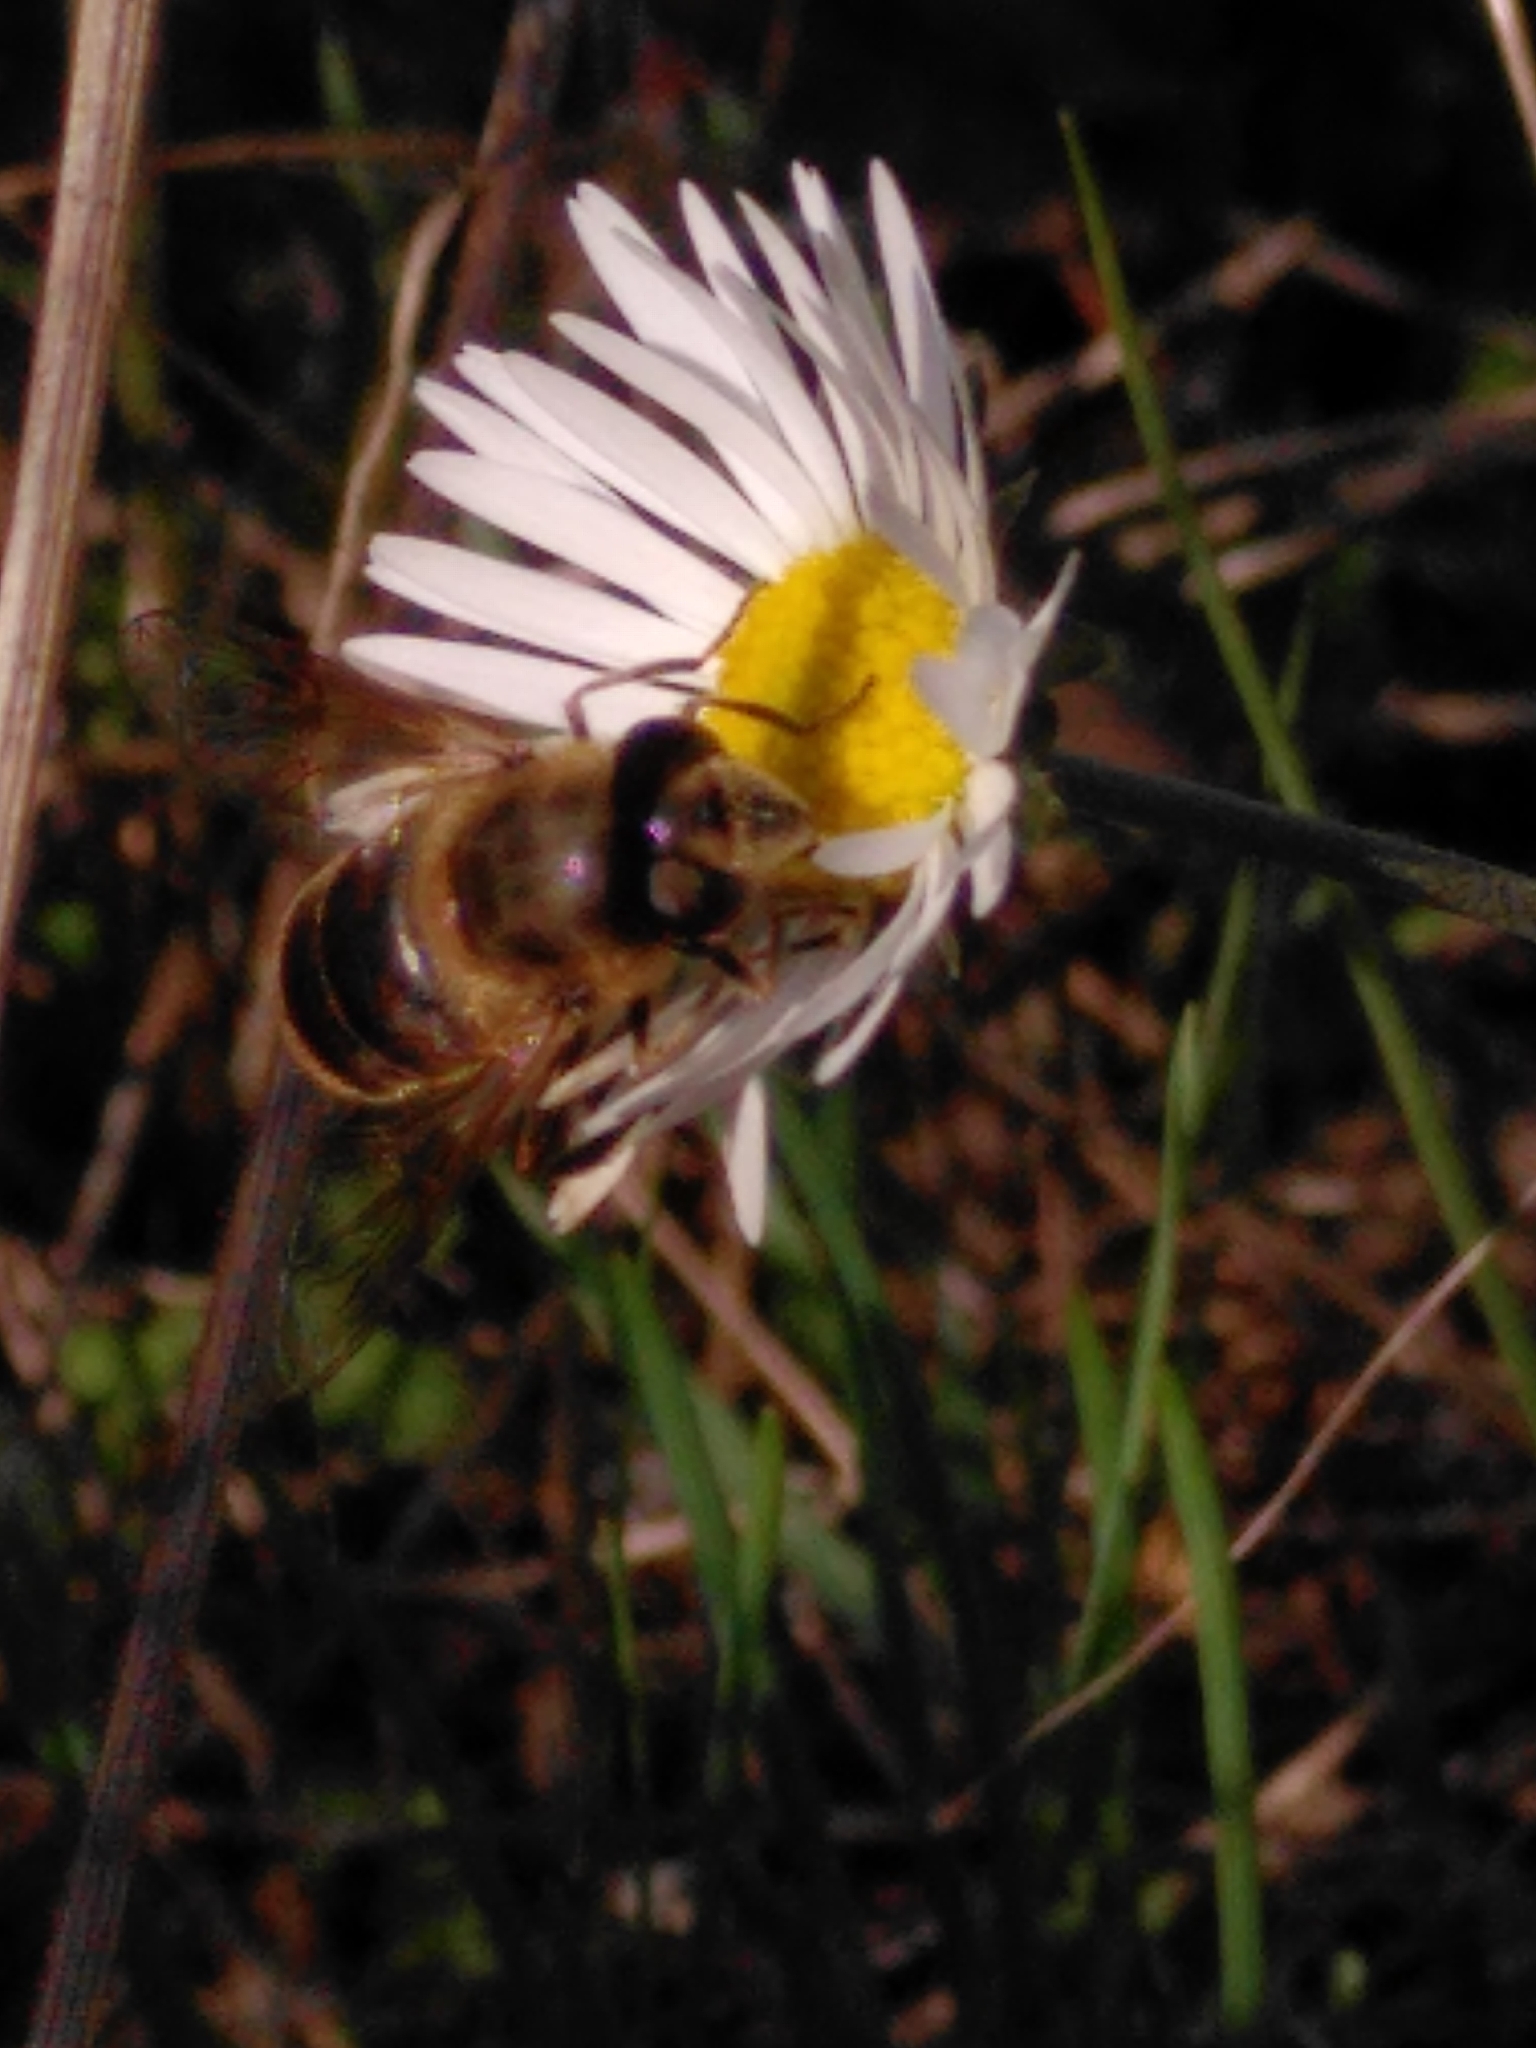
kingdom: Animalia
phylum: Arthropoda
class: Insecta
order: Diptera
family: Syrphidae
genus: Eristalis
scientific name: Eristalis tenax
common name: Drone fly
